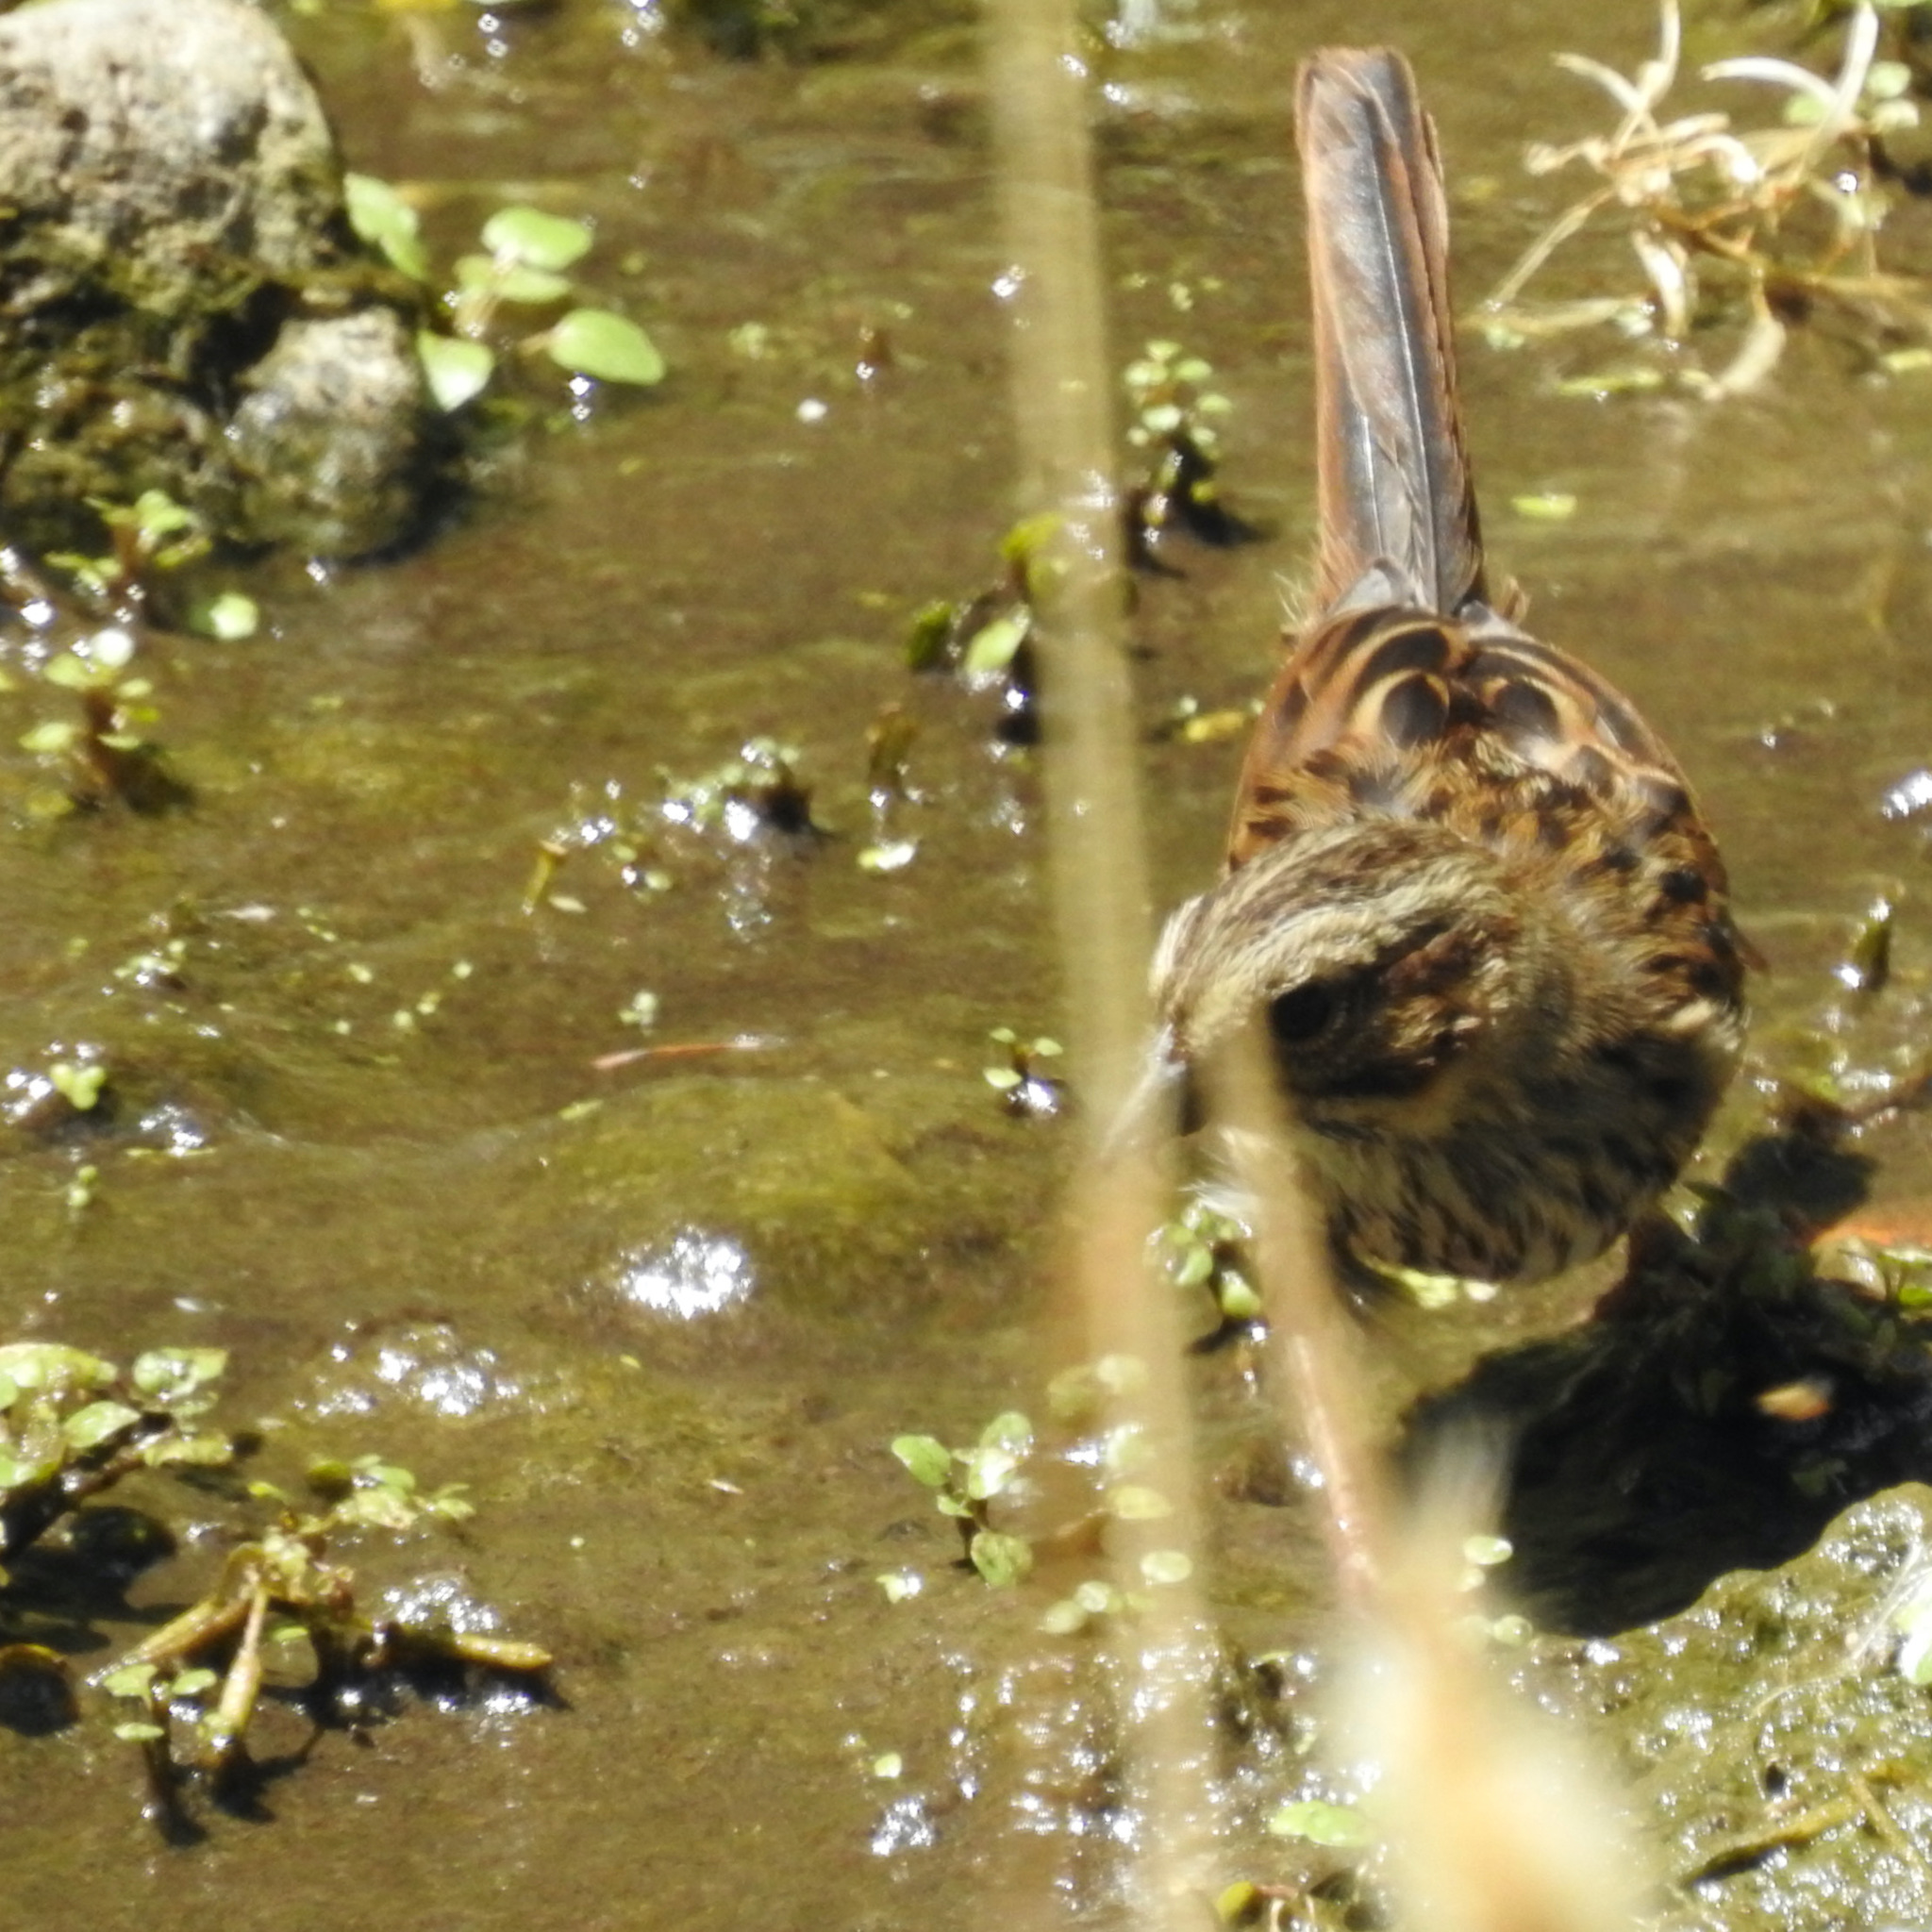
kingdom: Animalia
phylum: Chordata
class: Aves
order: Passeriformes
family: Passerellidae
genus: Melospiza
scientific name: Melospiza melodia
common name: Song sparrow
